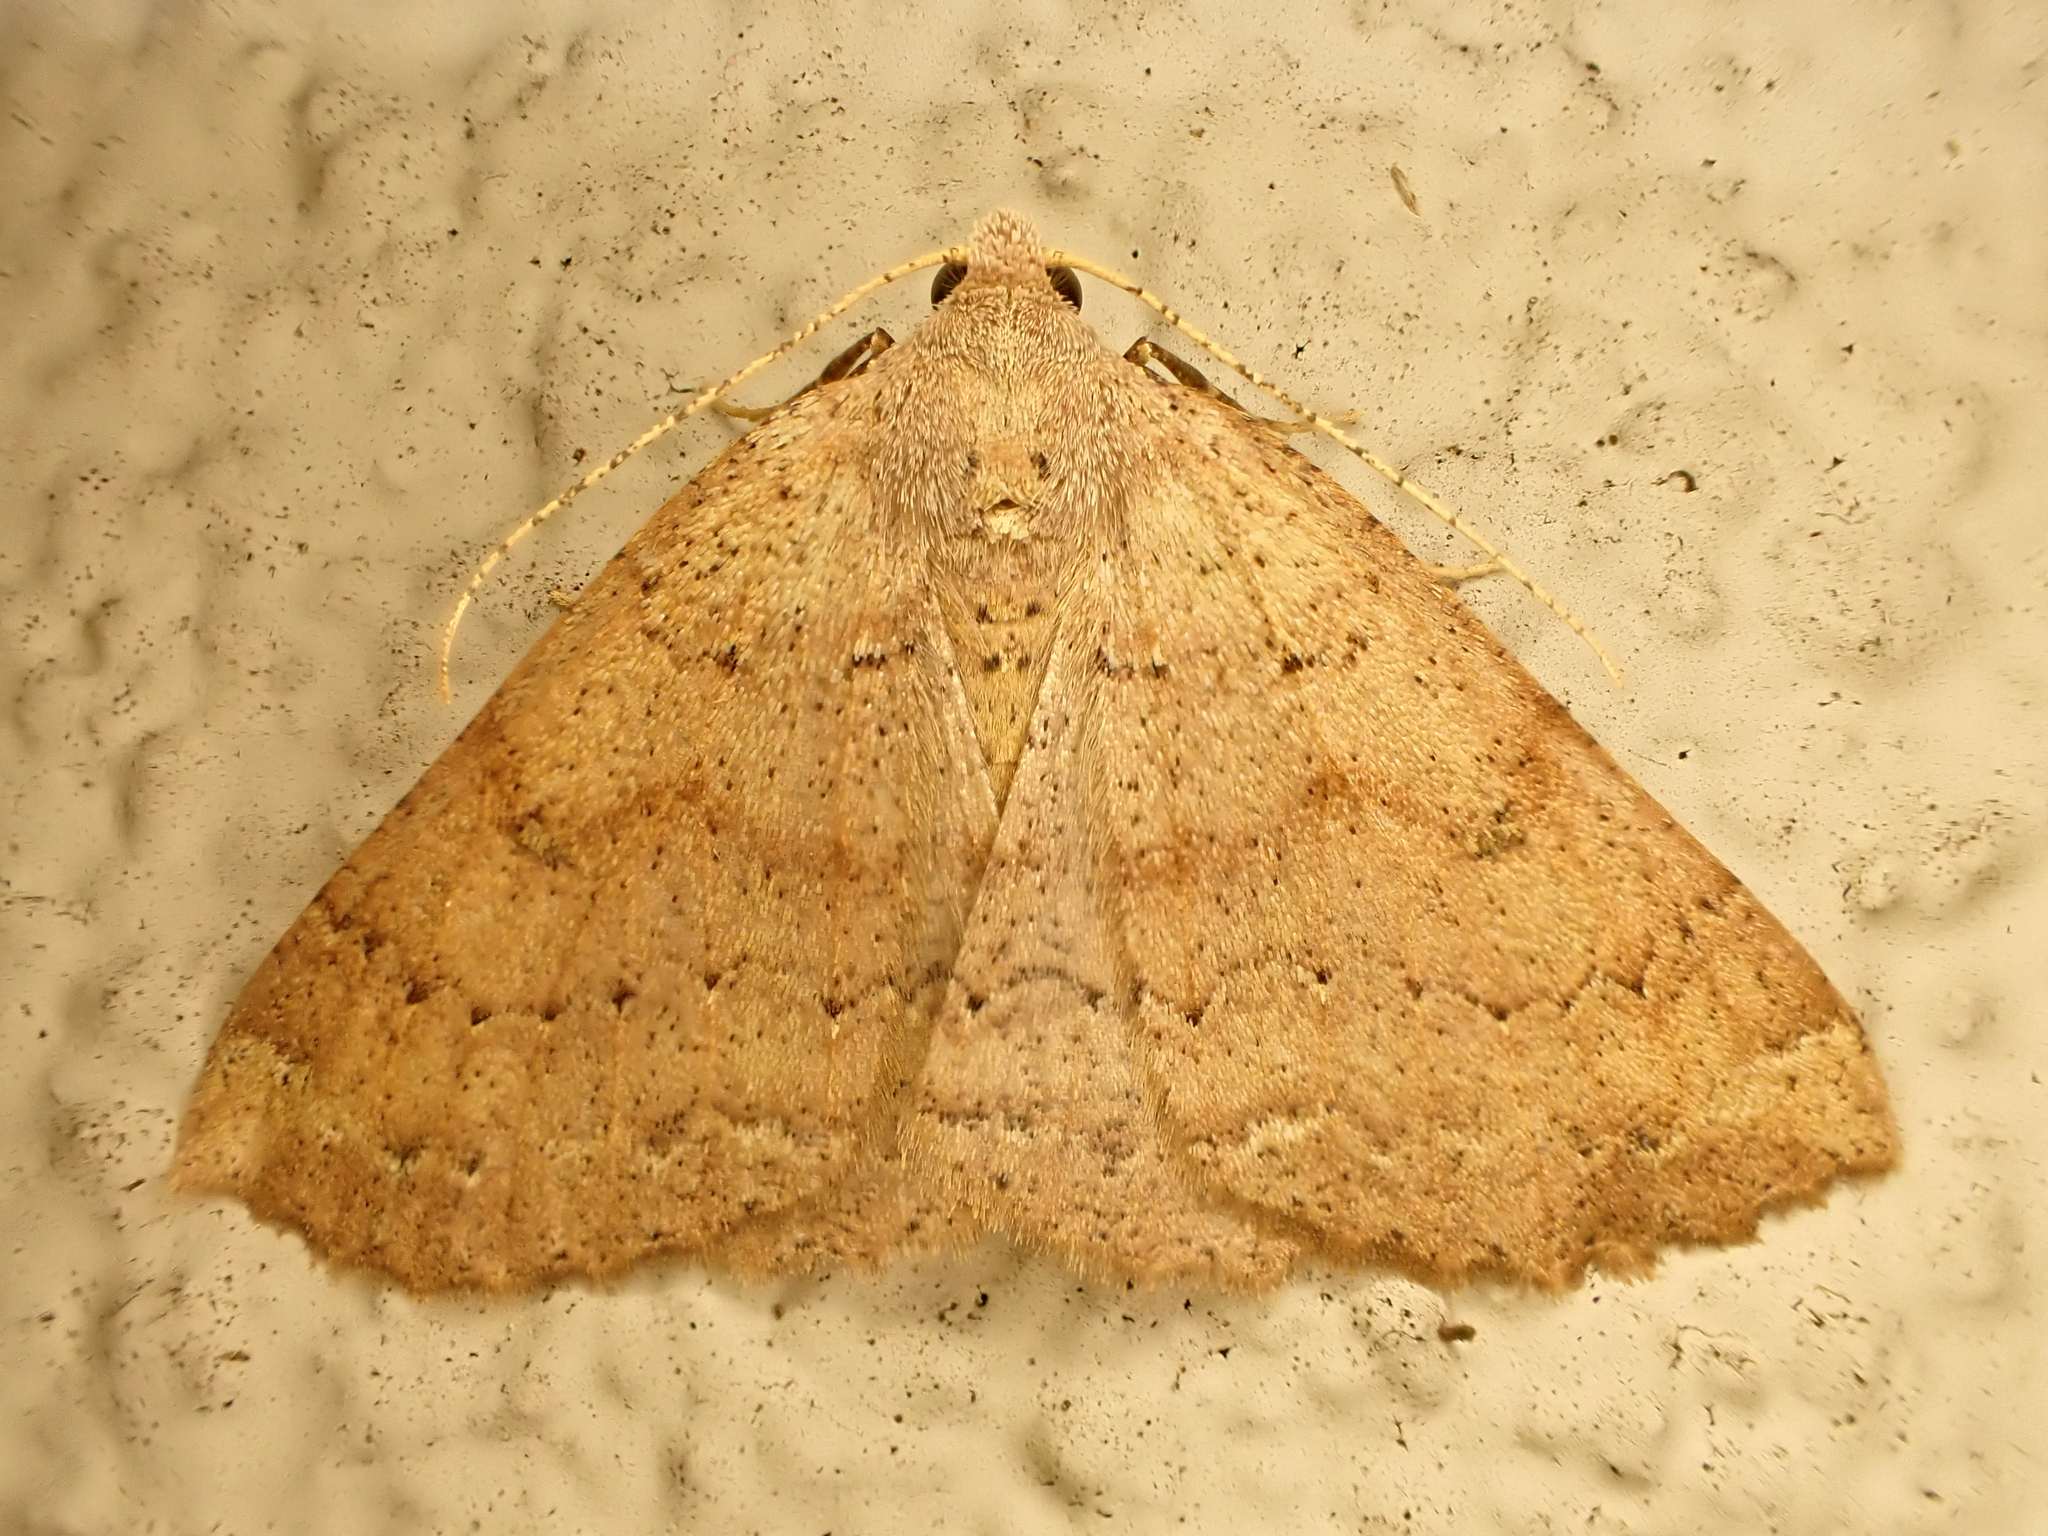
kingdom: Animalia
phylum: Arthropoda
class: Insecta
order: Lepidoptera
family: Geometridae
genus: Cleora
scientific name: Cleora scriptaria
